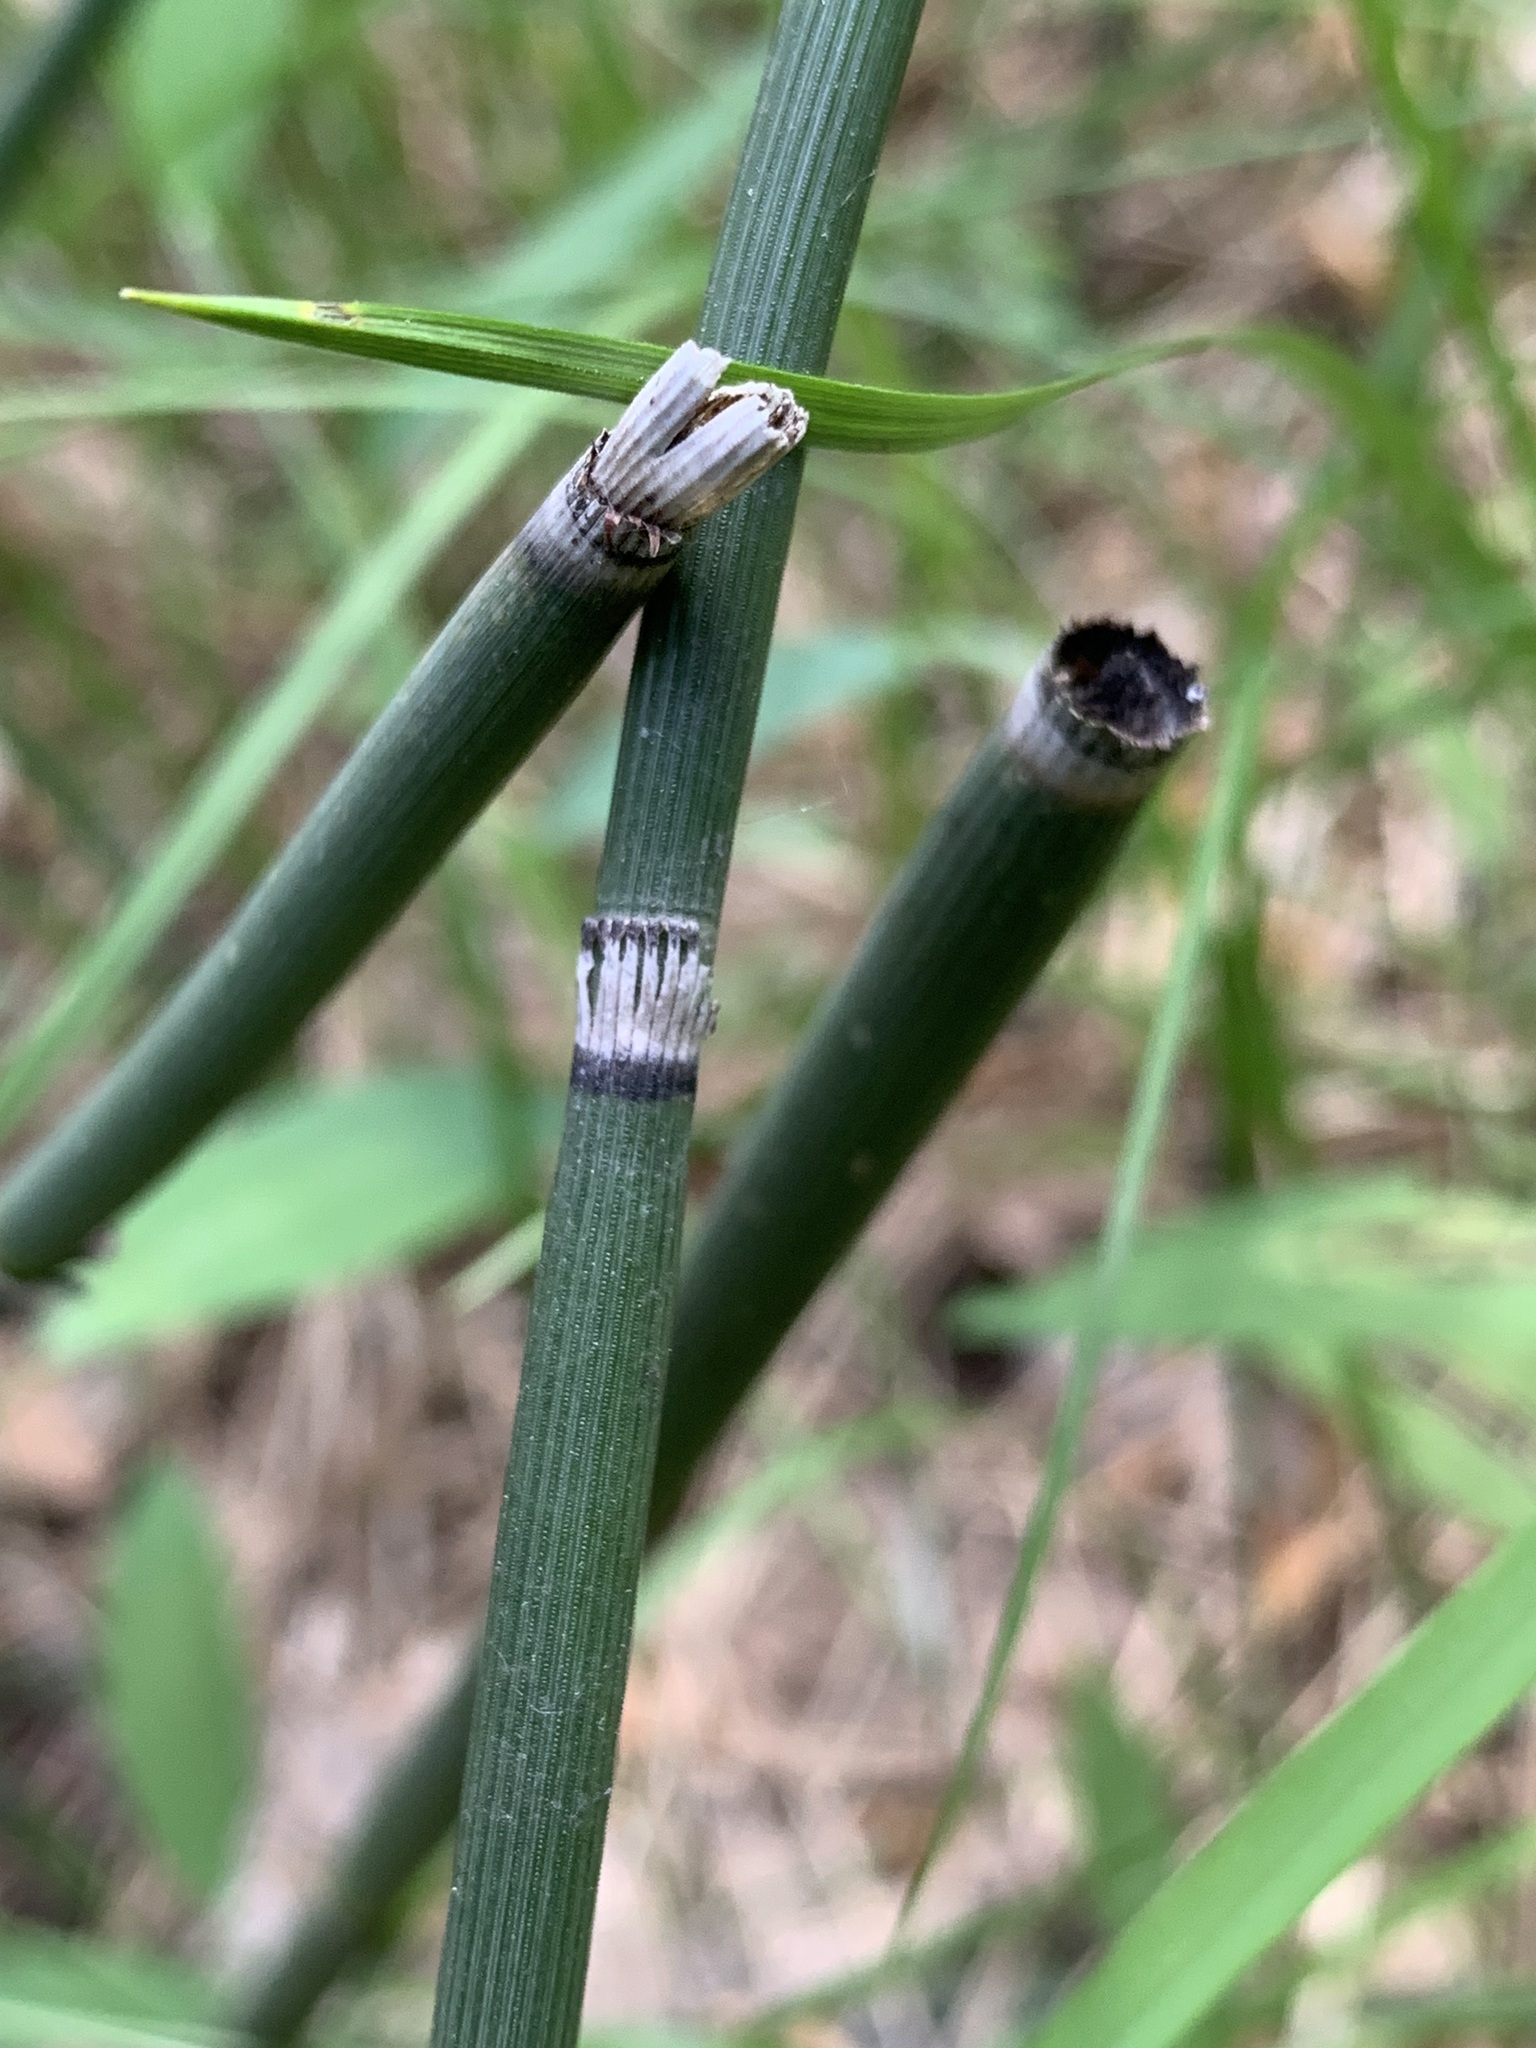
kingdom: Plantae
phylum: Tracheophyta
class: Polypodiopsida
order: Equisetales
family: Equisetaceae
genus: Equisetum
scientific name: Equisetum hyemale
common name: Rough horsetail
